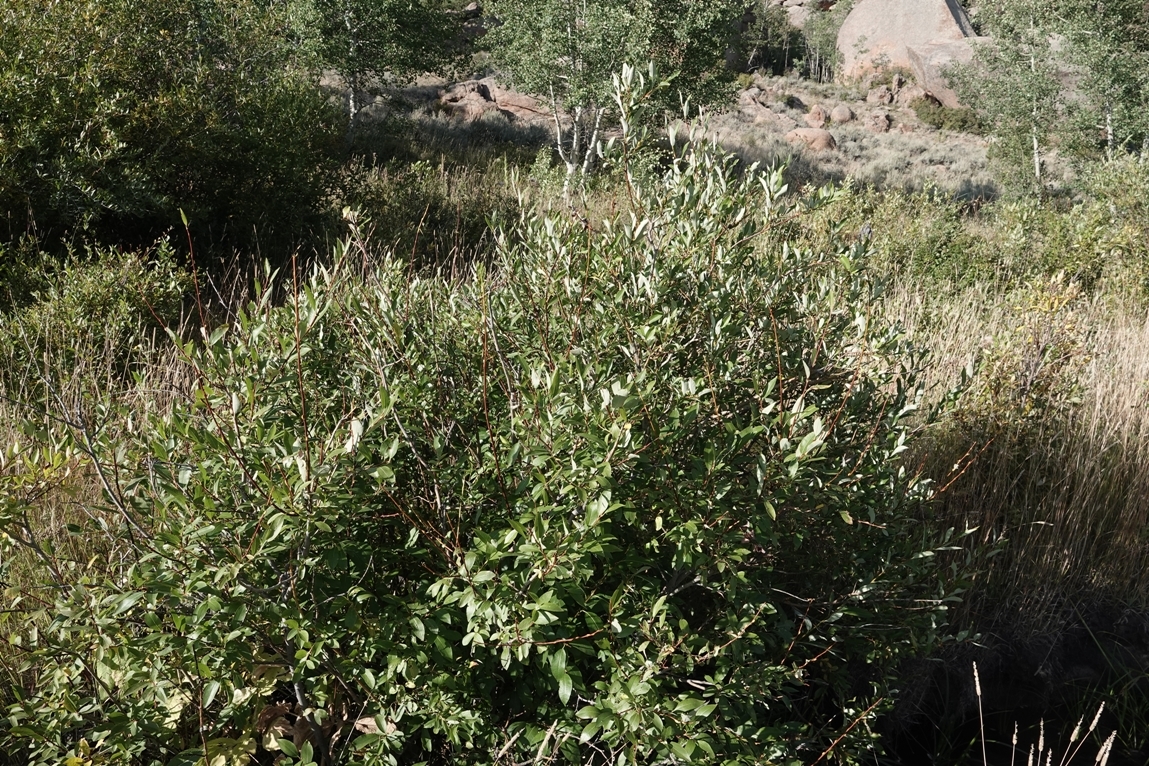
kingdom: Animalia
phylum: Arthropoda
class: Insecta
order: Diptera
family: Cecidomyiidae
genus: Rabdophaga
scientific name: Rabdophaga strobiloides
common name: Willow pinecone gall midge
